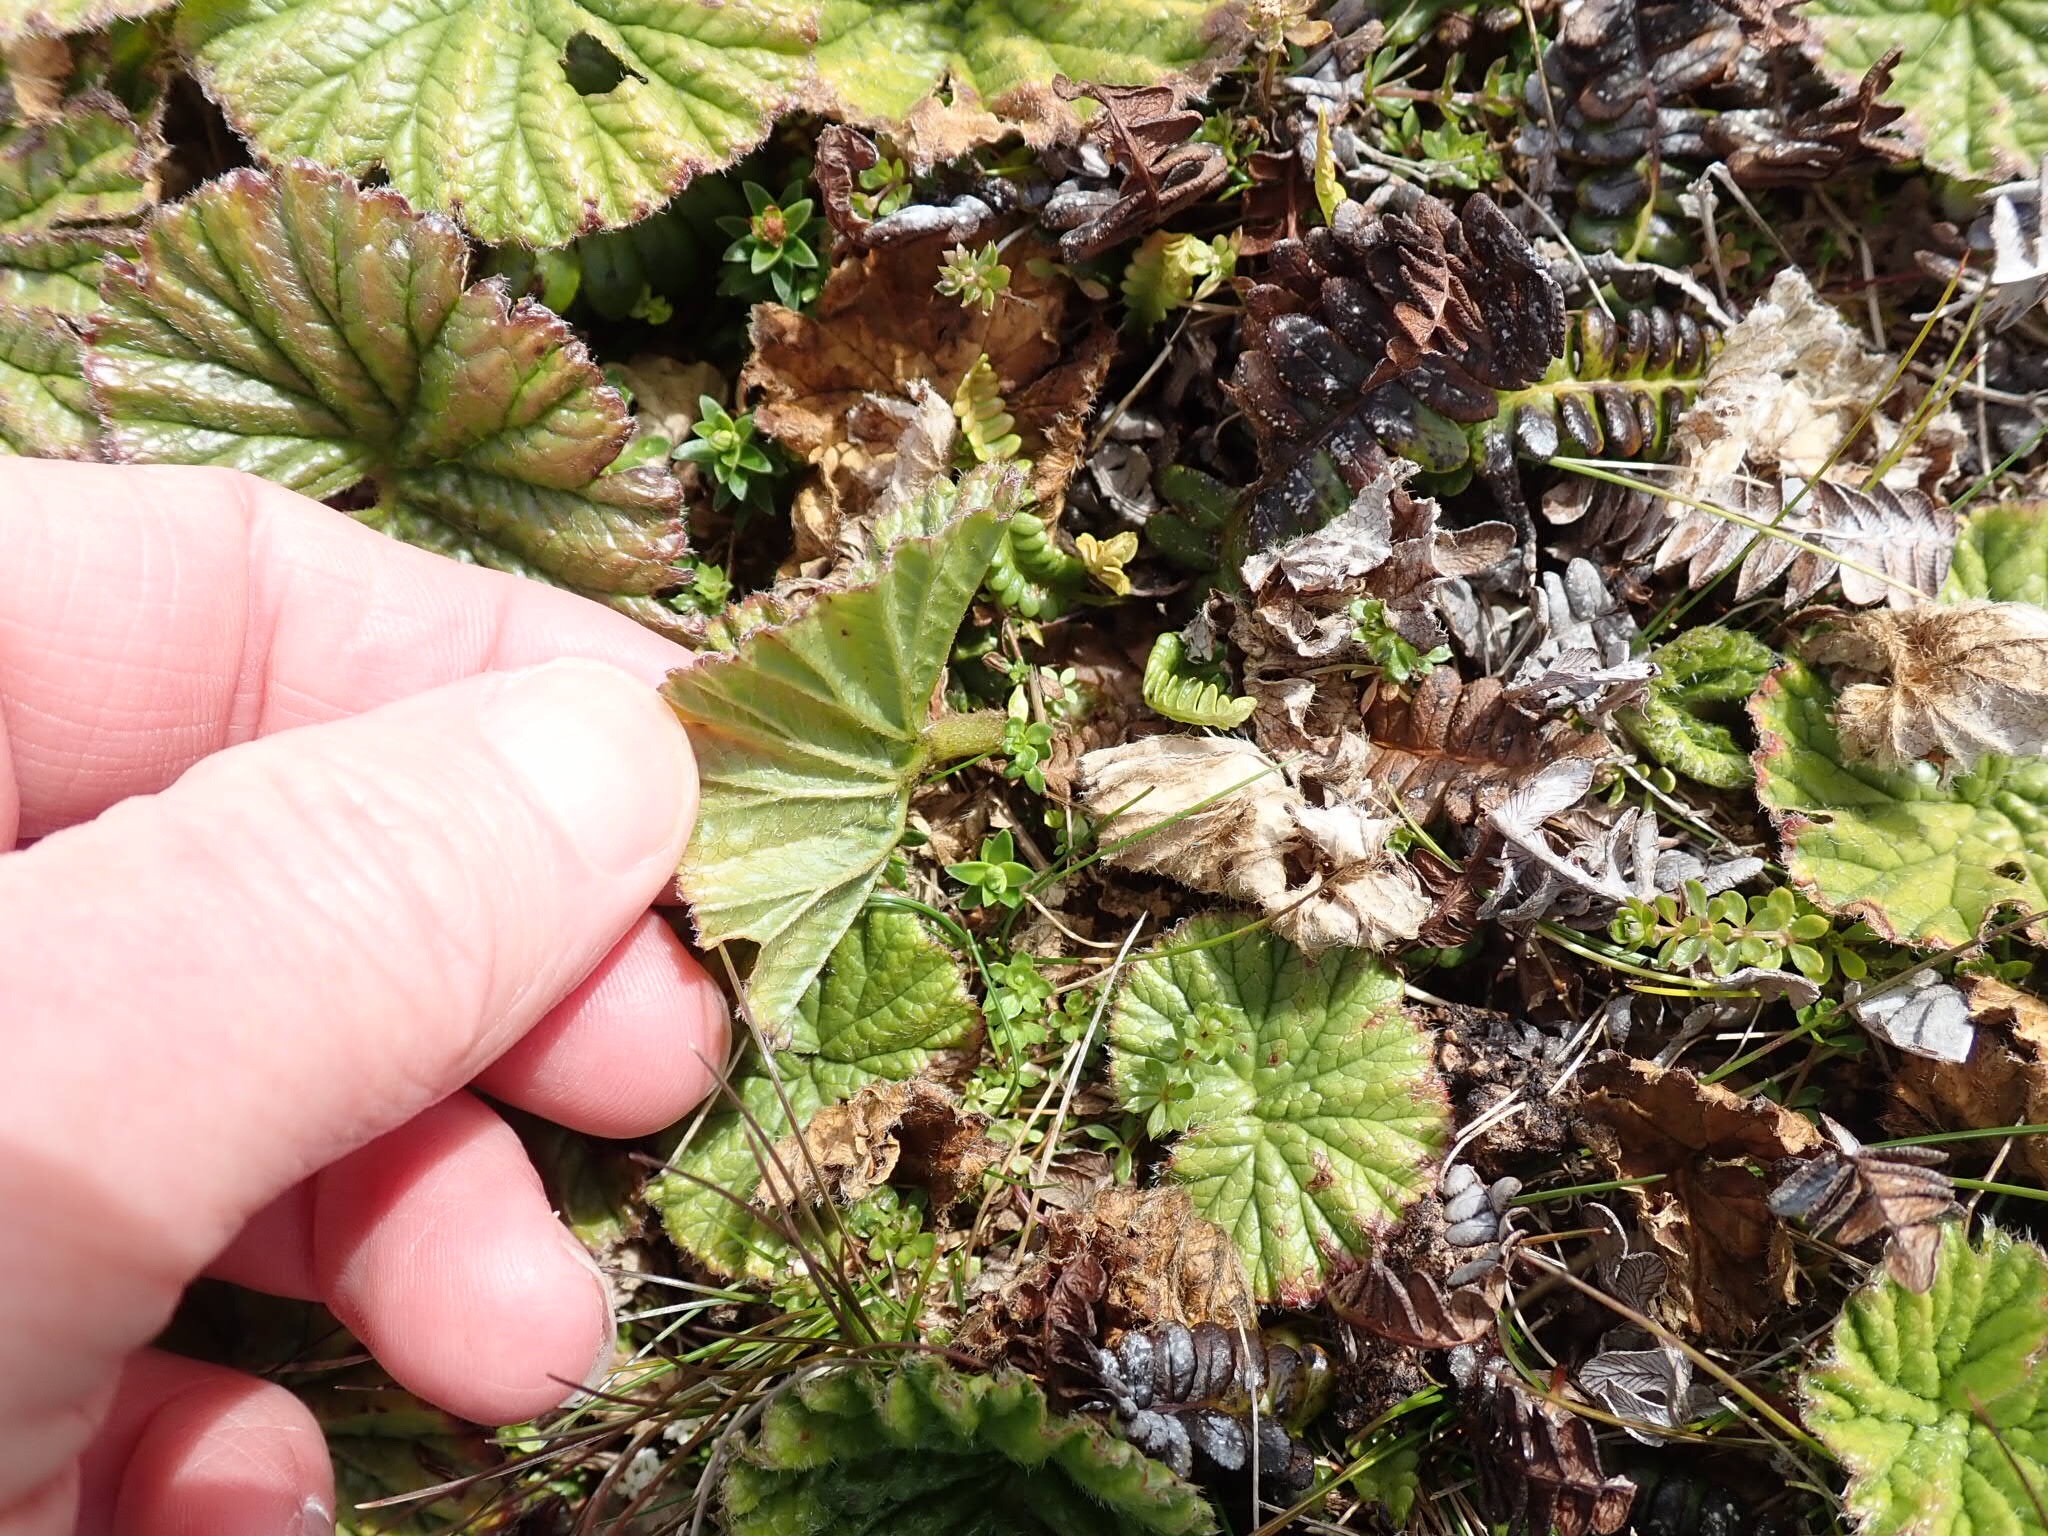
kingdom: Plantae
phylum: Tracheophyta
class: Magnoliopsida
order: Gunnerales
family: Gunneraceae
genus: Gunnera
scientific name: Gunnera magellanica
